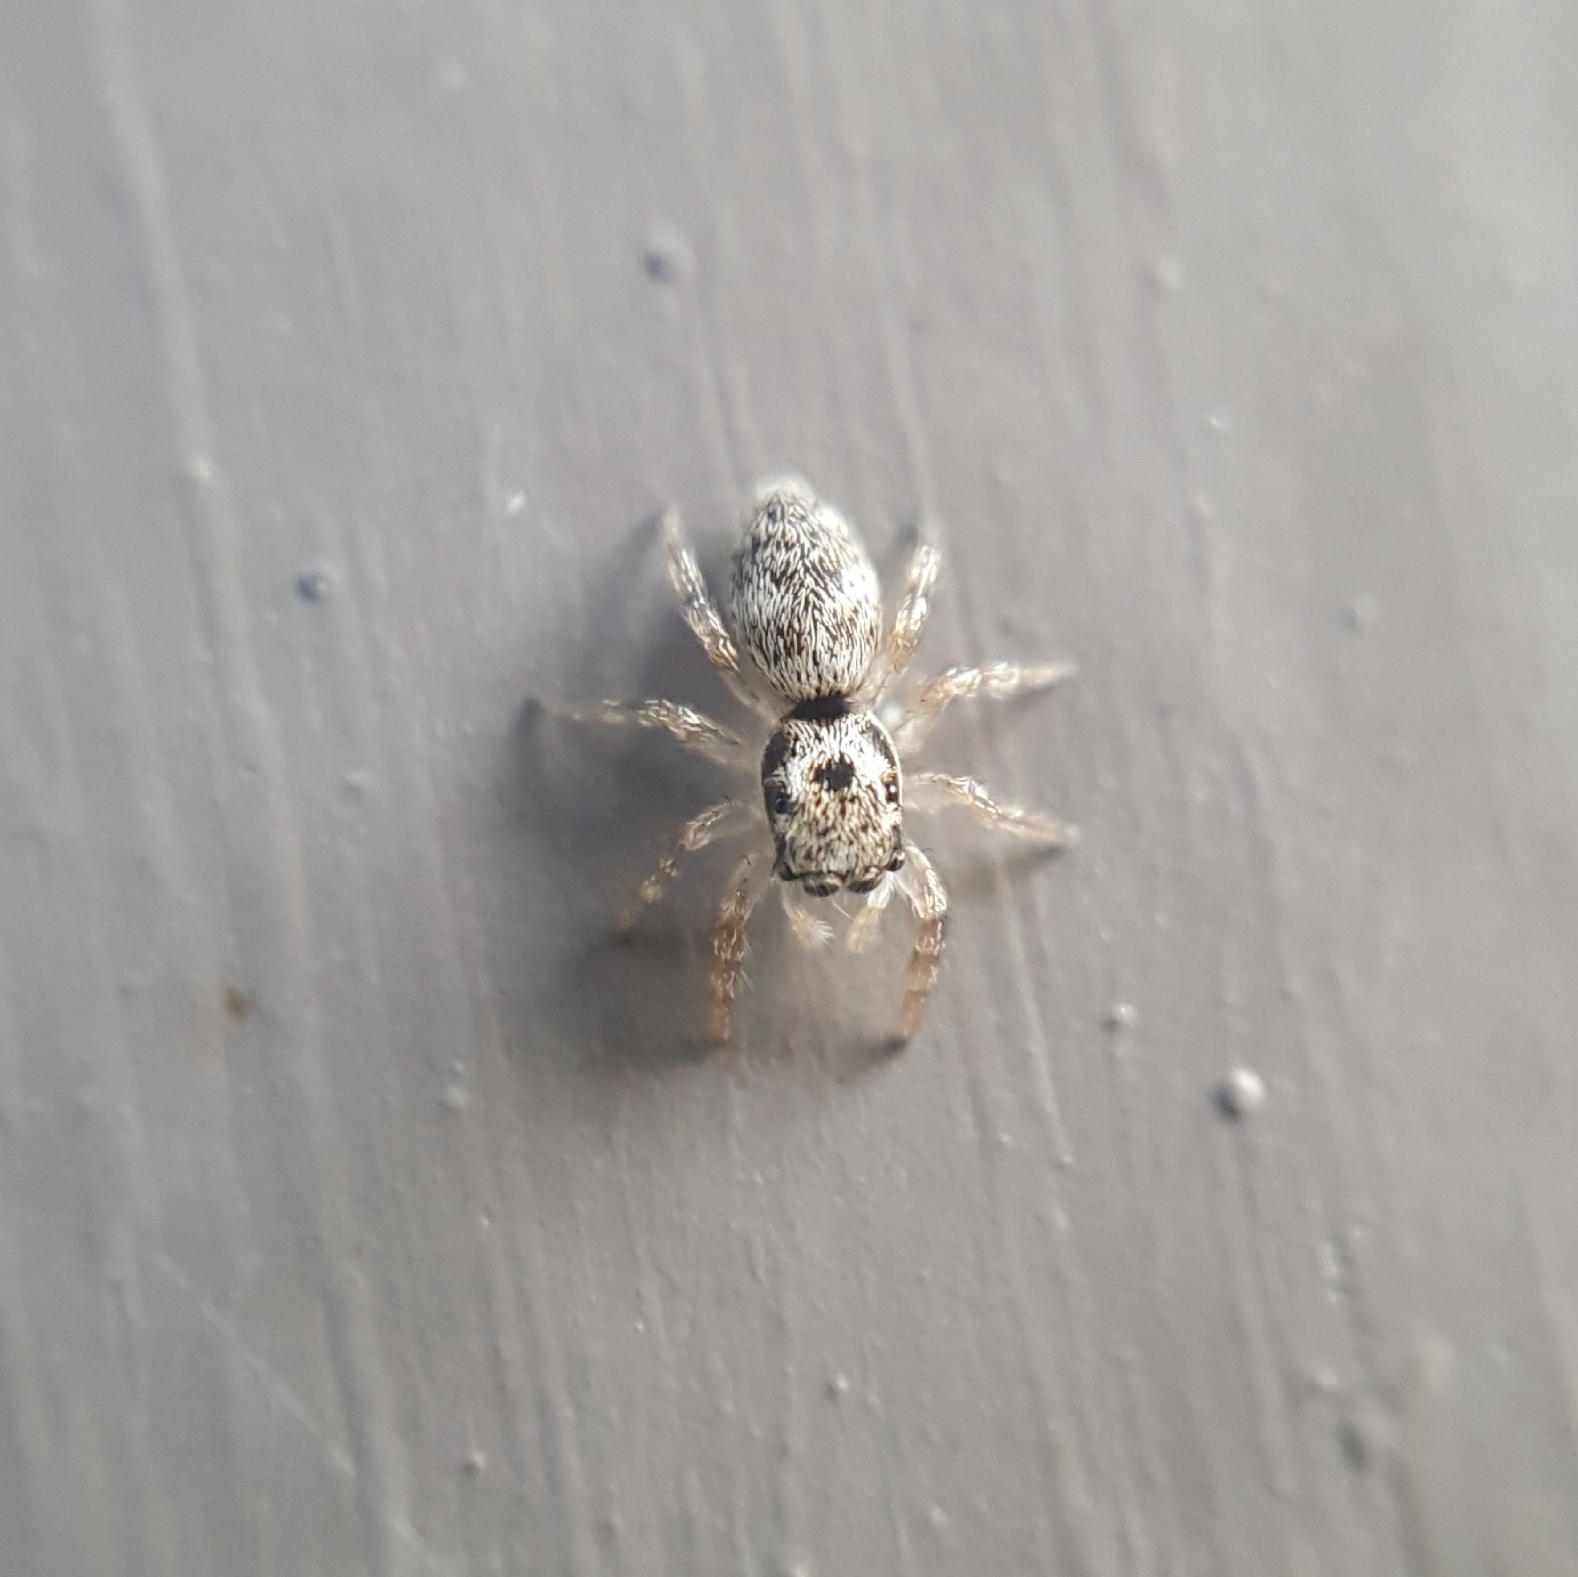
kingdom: Animalia
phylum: Arthropoda
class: Arachnida
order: Araneae
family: Salticidae
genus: Salticus
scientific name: Salticus scenicus
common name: Zebra jumper
